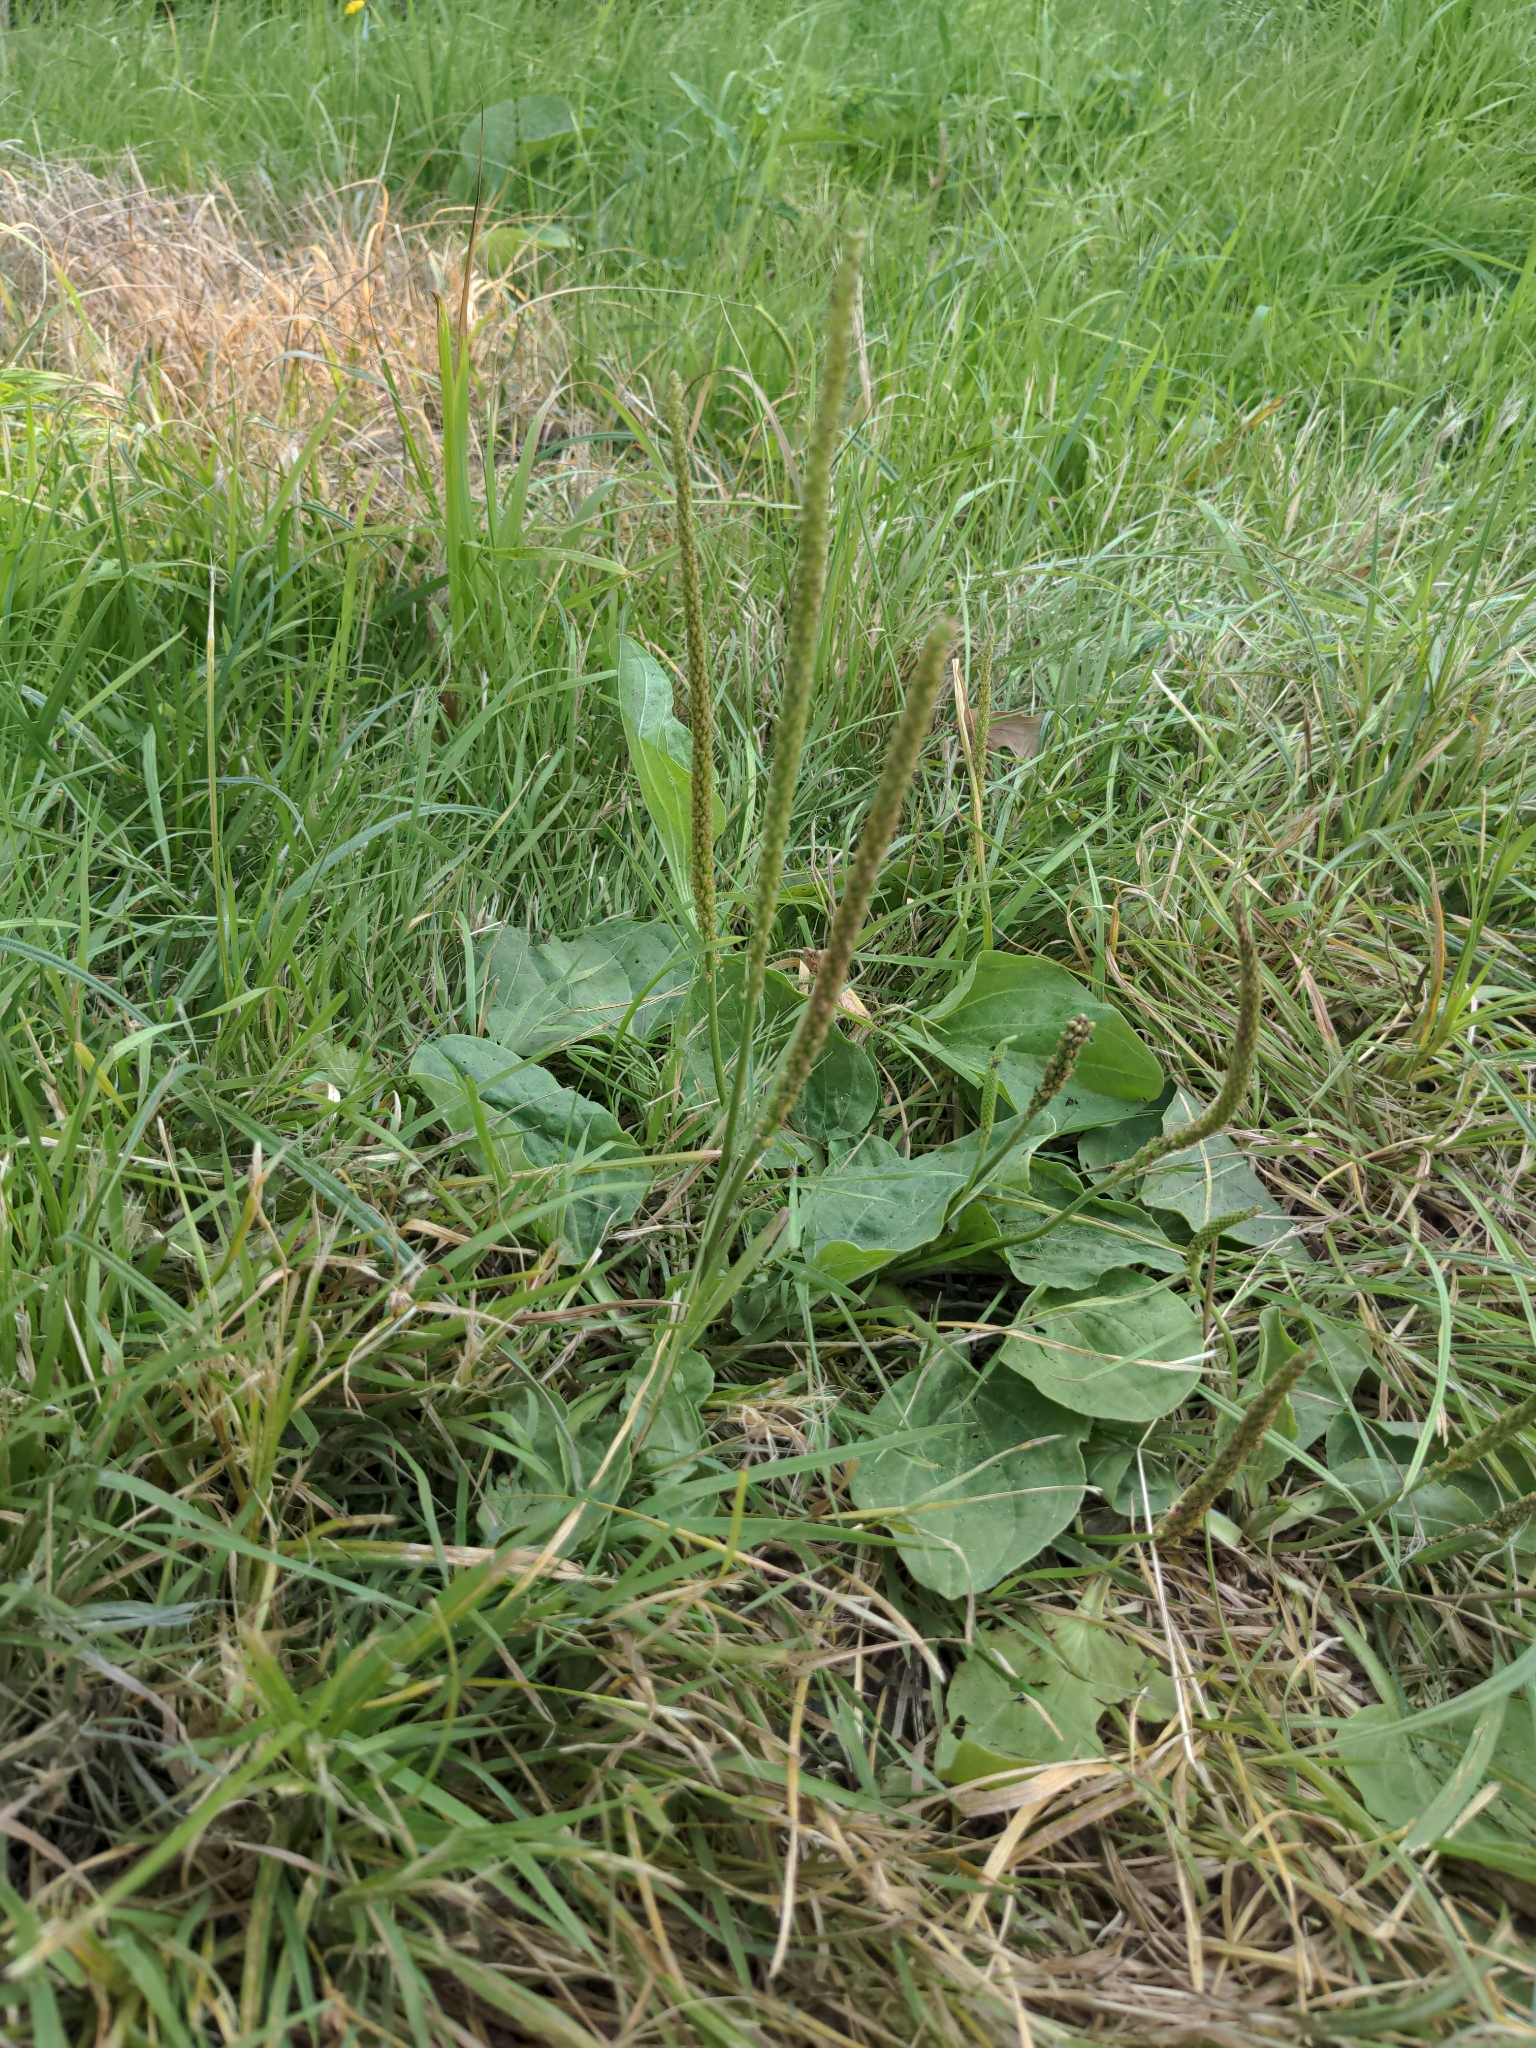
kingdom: Plantae
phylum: Tracheophyta
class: Magnoliopsida
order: Lamiales
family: Plantaginaceae
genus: Plantago
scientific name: Plantago major
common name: Common plantain
